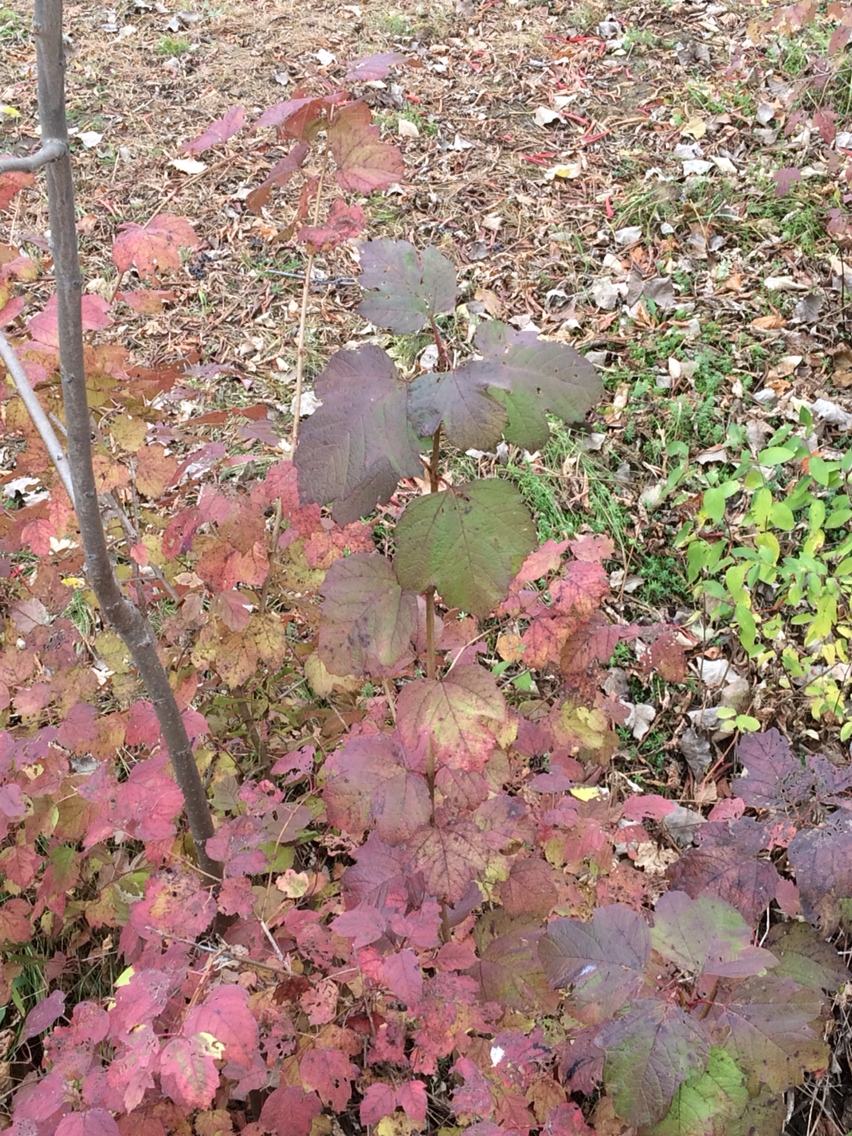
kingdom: Plantae
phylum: Tracheophyta
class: Magnoliopsida
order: Dipsacales
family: Viburnaceae
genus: Viburnum
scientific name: Viburnum opulus
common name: Guelder-rose
